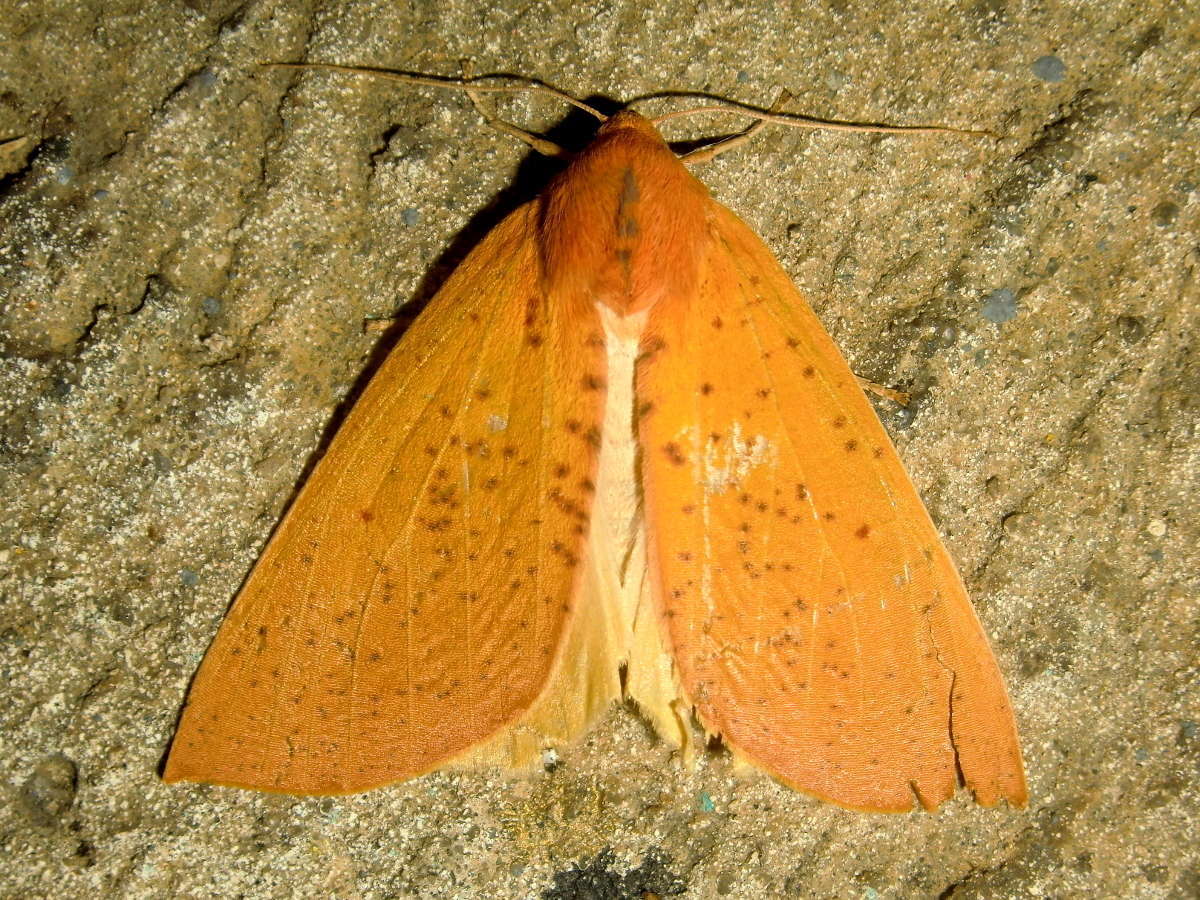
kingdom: Animalia
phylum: Arthropoda
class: Insecta
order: Lepidoptera
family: Geometridae
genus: Plesanemma
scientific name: Plesanemma fucata
